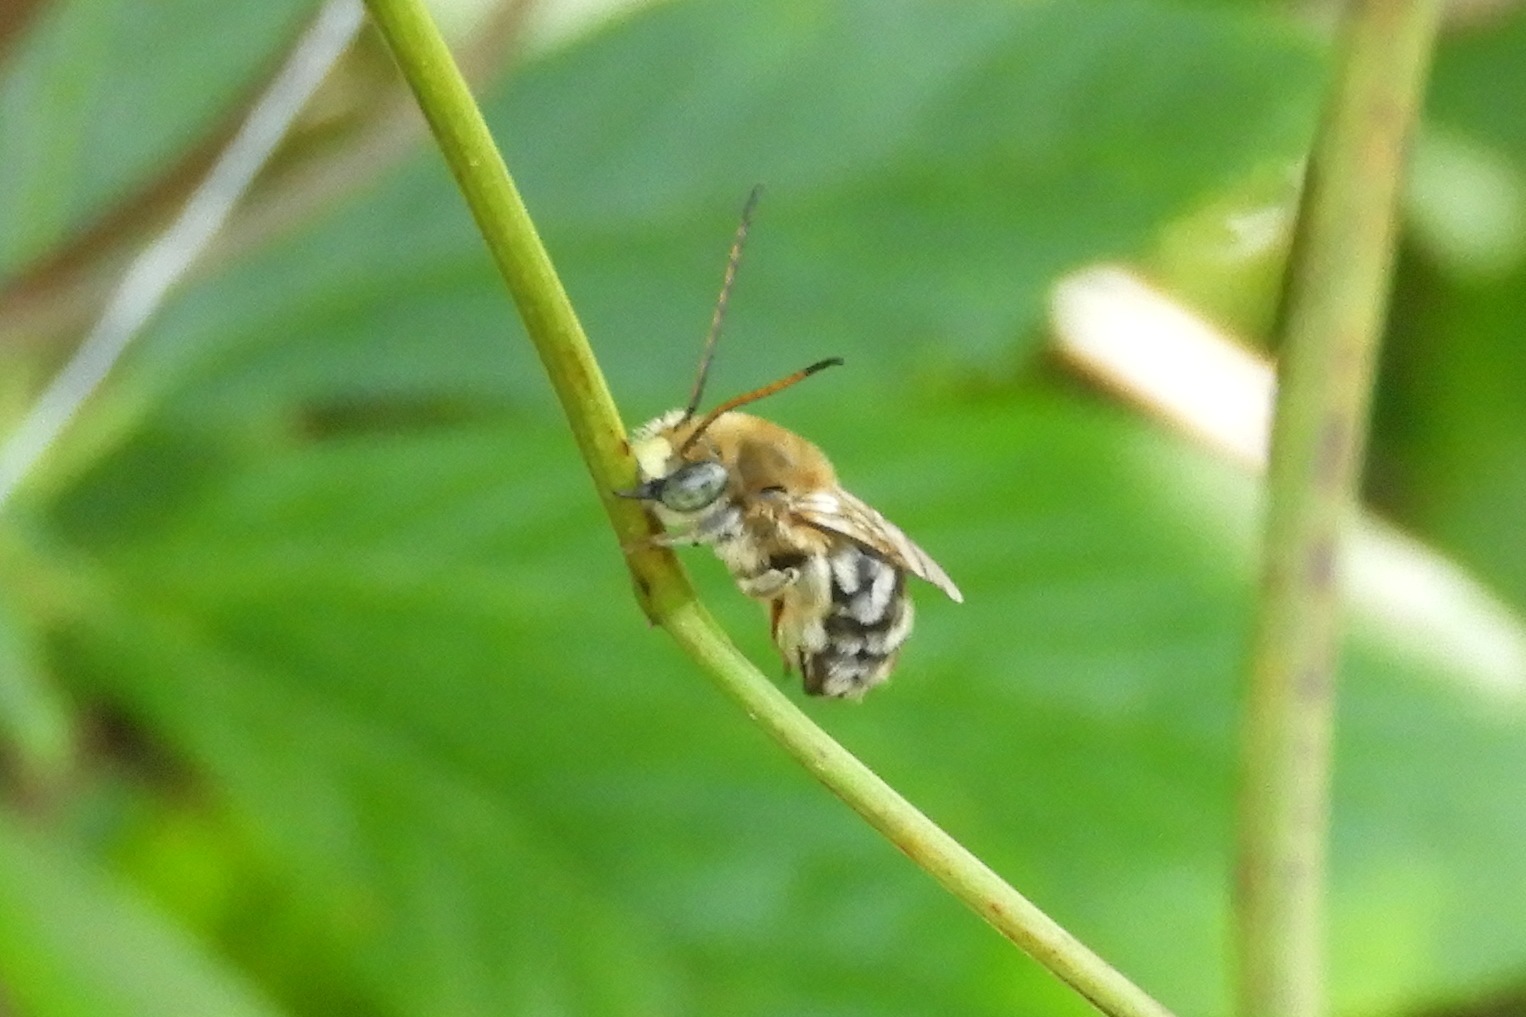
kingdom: Animalia
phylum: Arthropoda
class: Insecta
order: Hymenoptera
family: Apidae
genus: Florilegus
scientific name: Florilegus condignus
